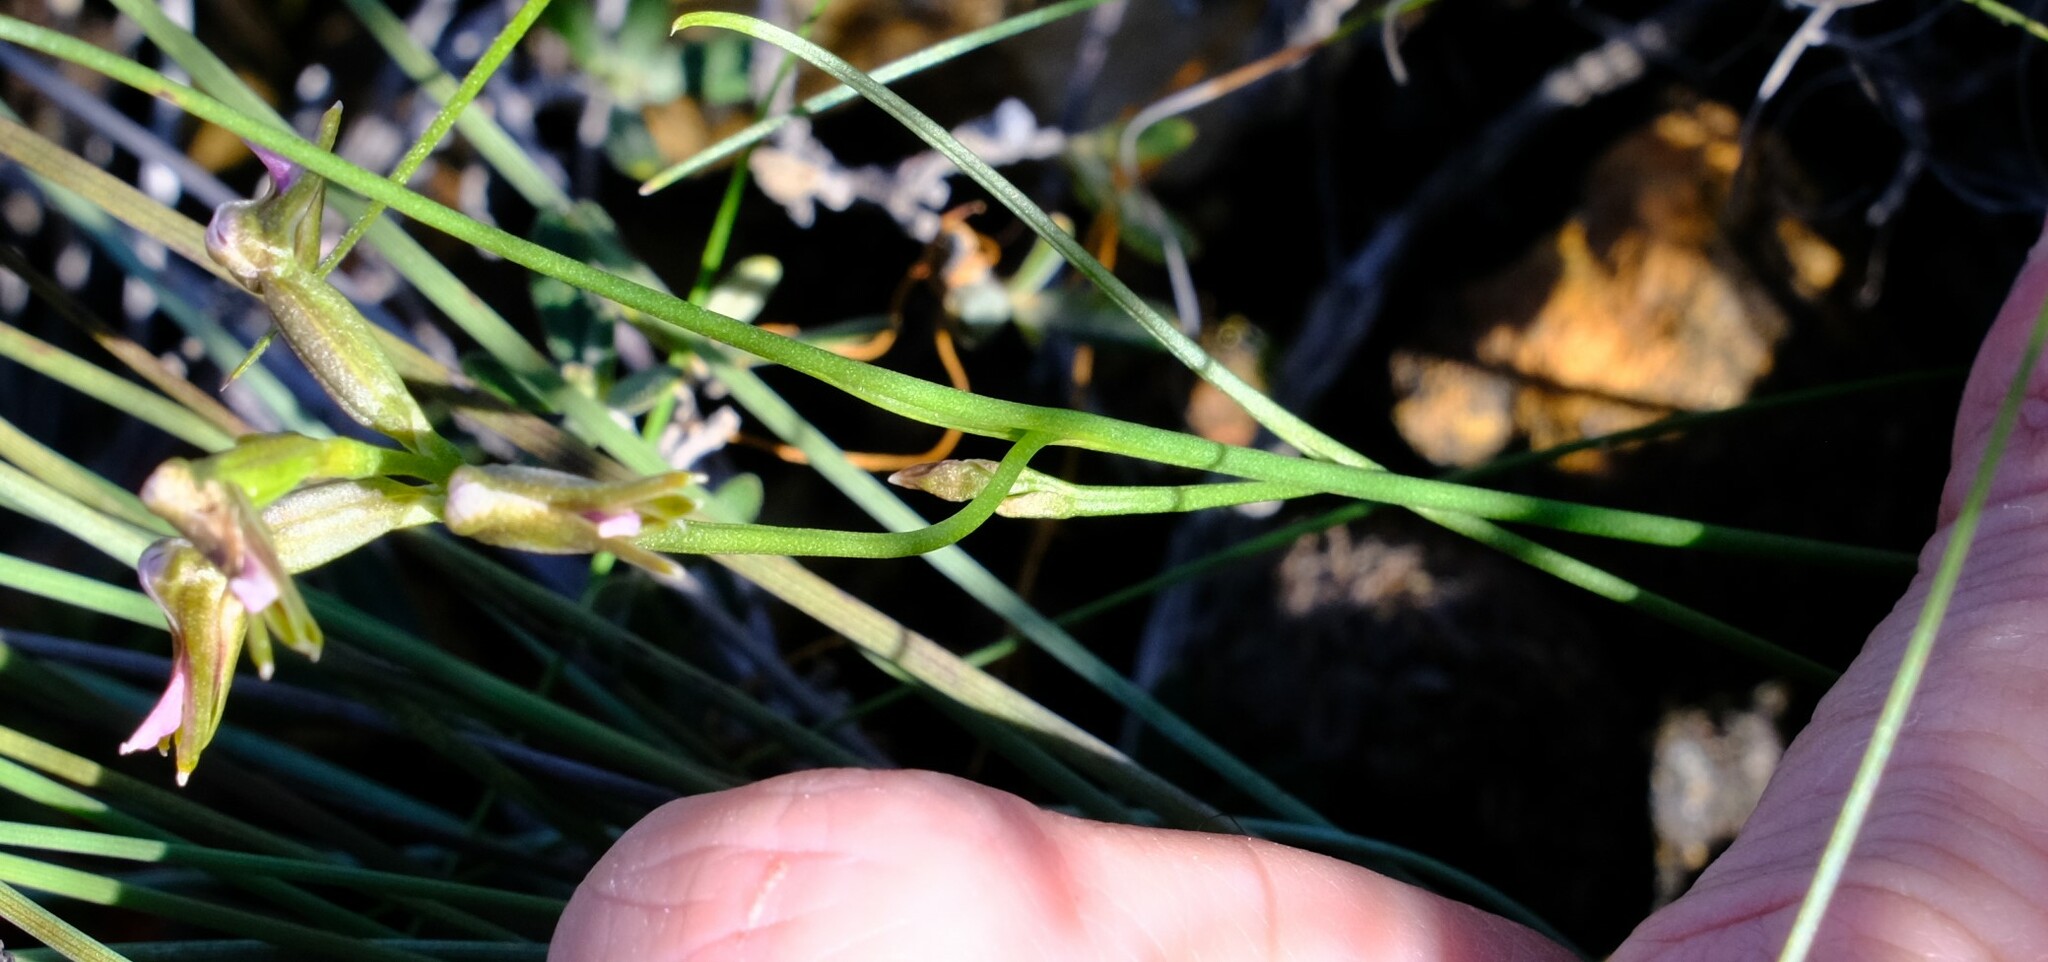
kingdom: Plantae
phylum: Tracheophyta
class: Liliopsida
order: Asparagales
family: Orchidaceae
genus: Prasophyllum
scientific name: Prasophyllum parvifolium
